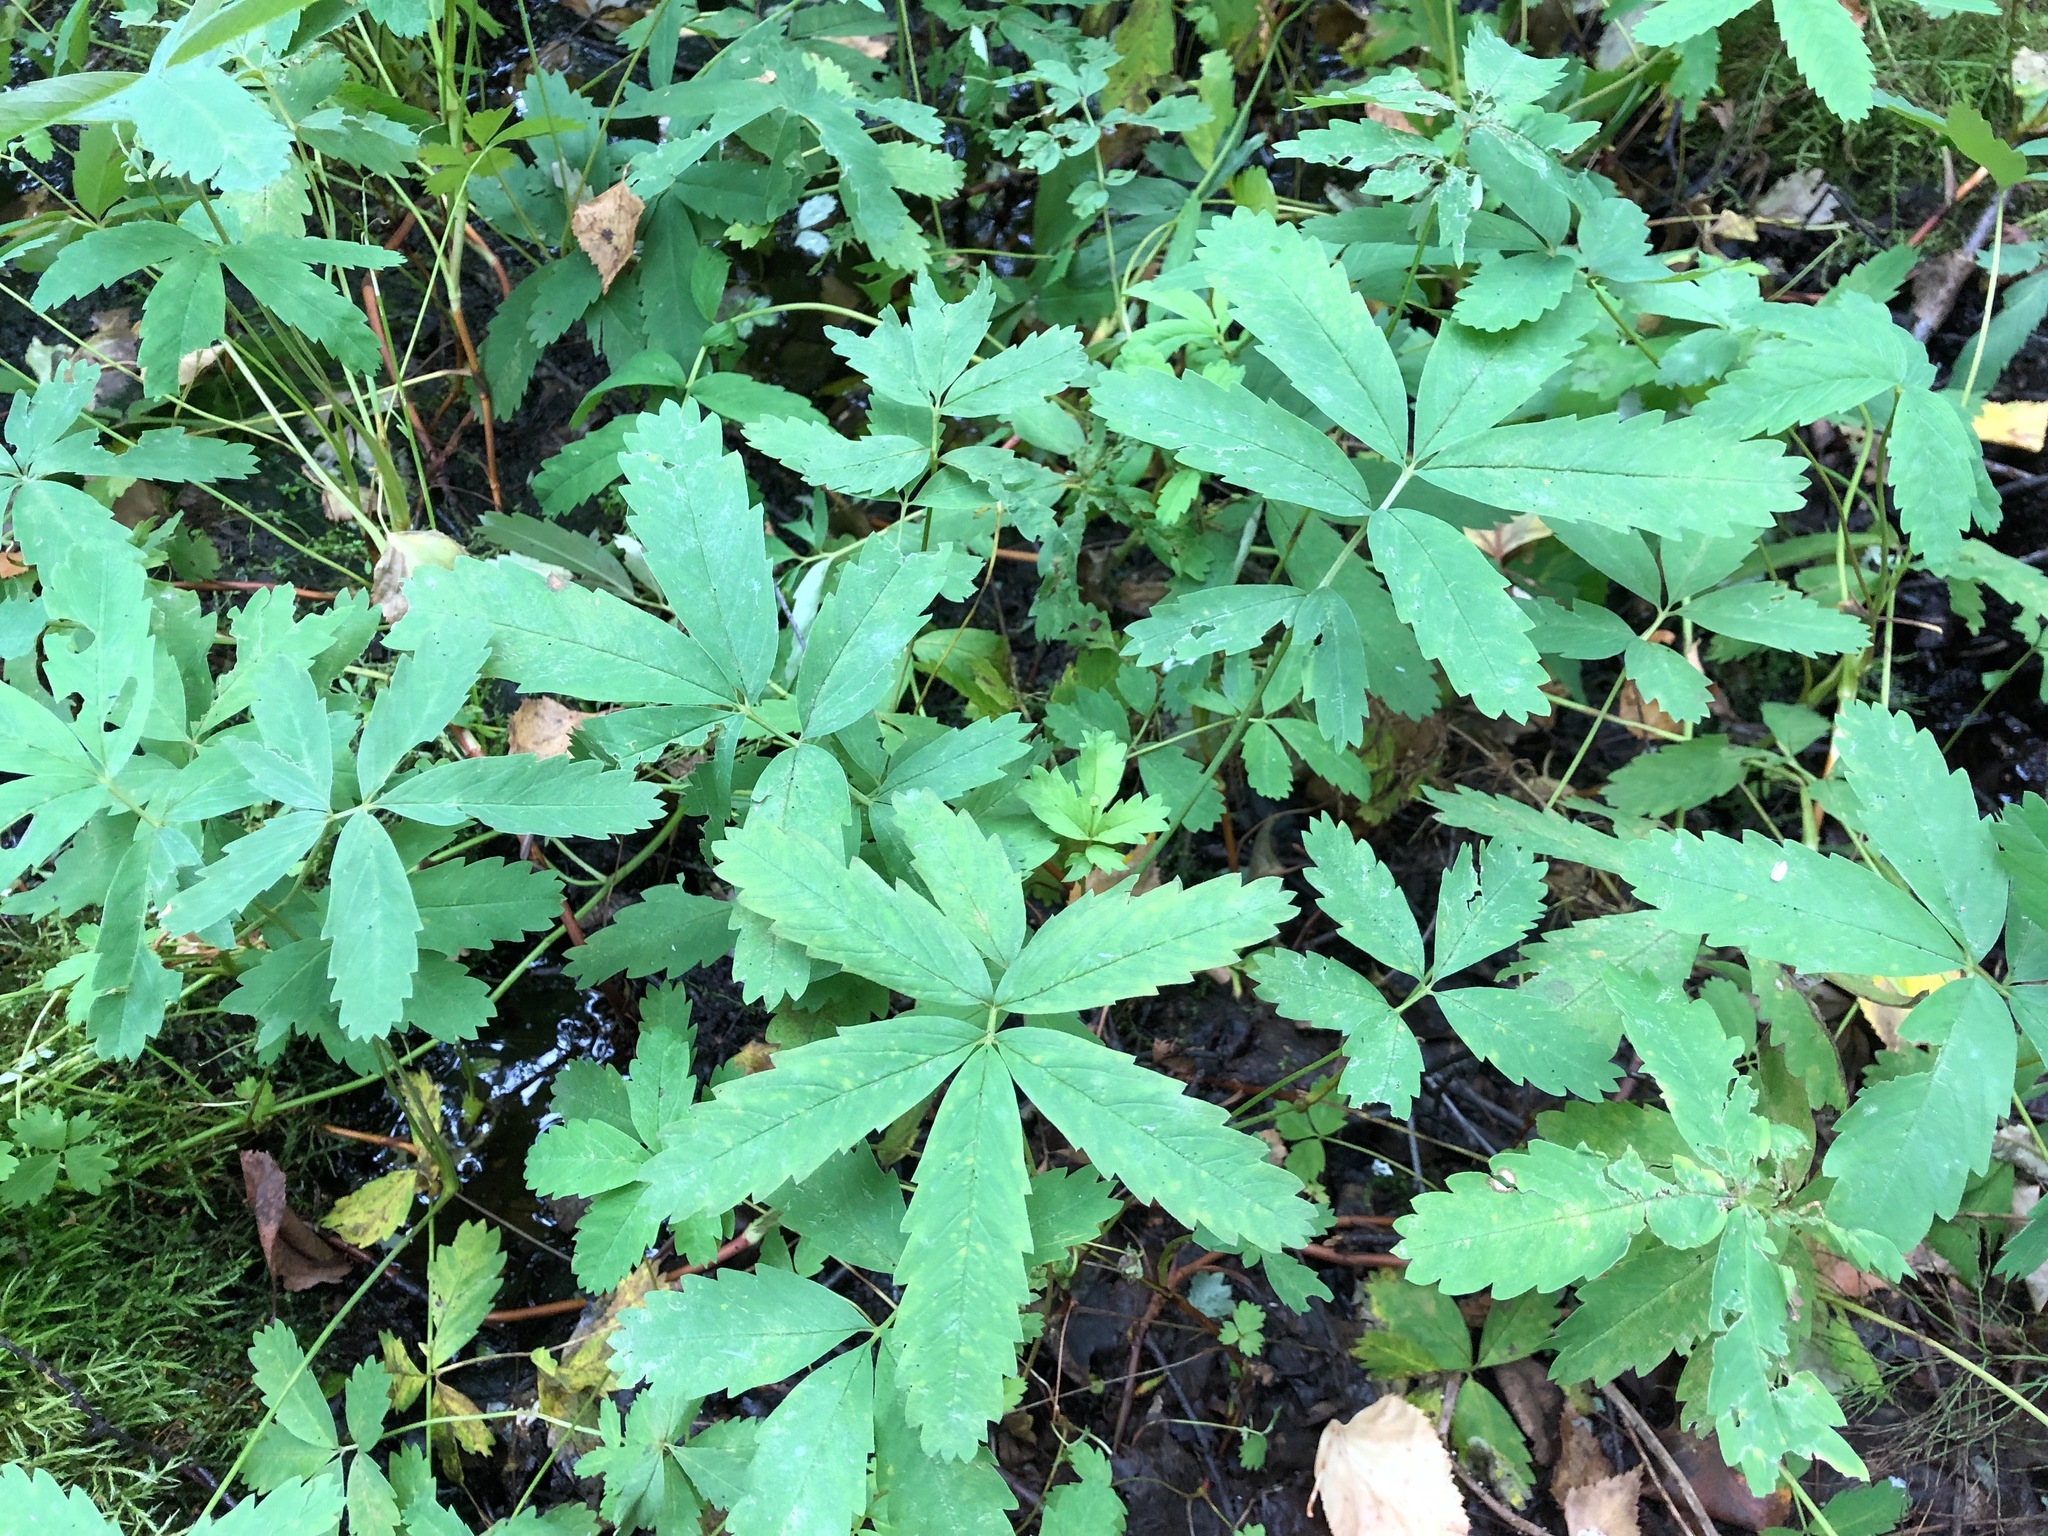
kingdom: Plantae
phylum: Tracheophyta
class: Magnoliopsida
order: Rosales
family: Rosaceae
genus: Comarum
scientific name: Comarum palustre
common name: Marsh cinquefoil
